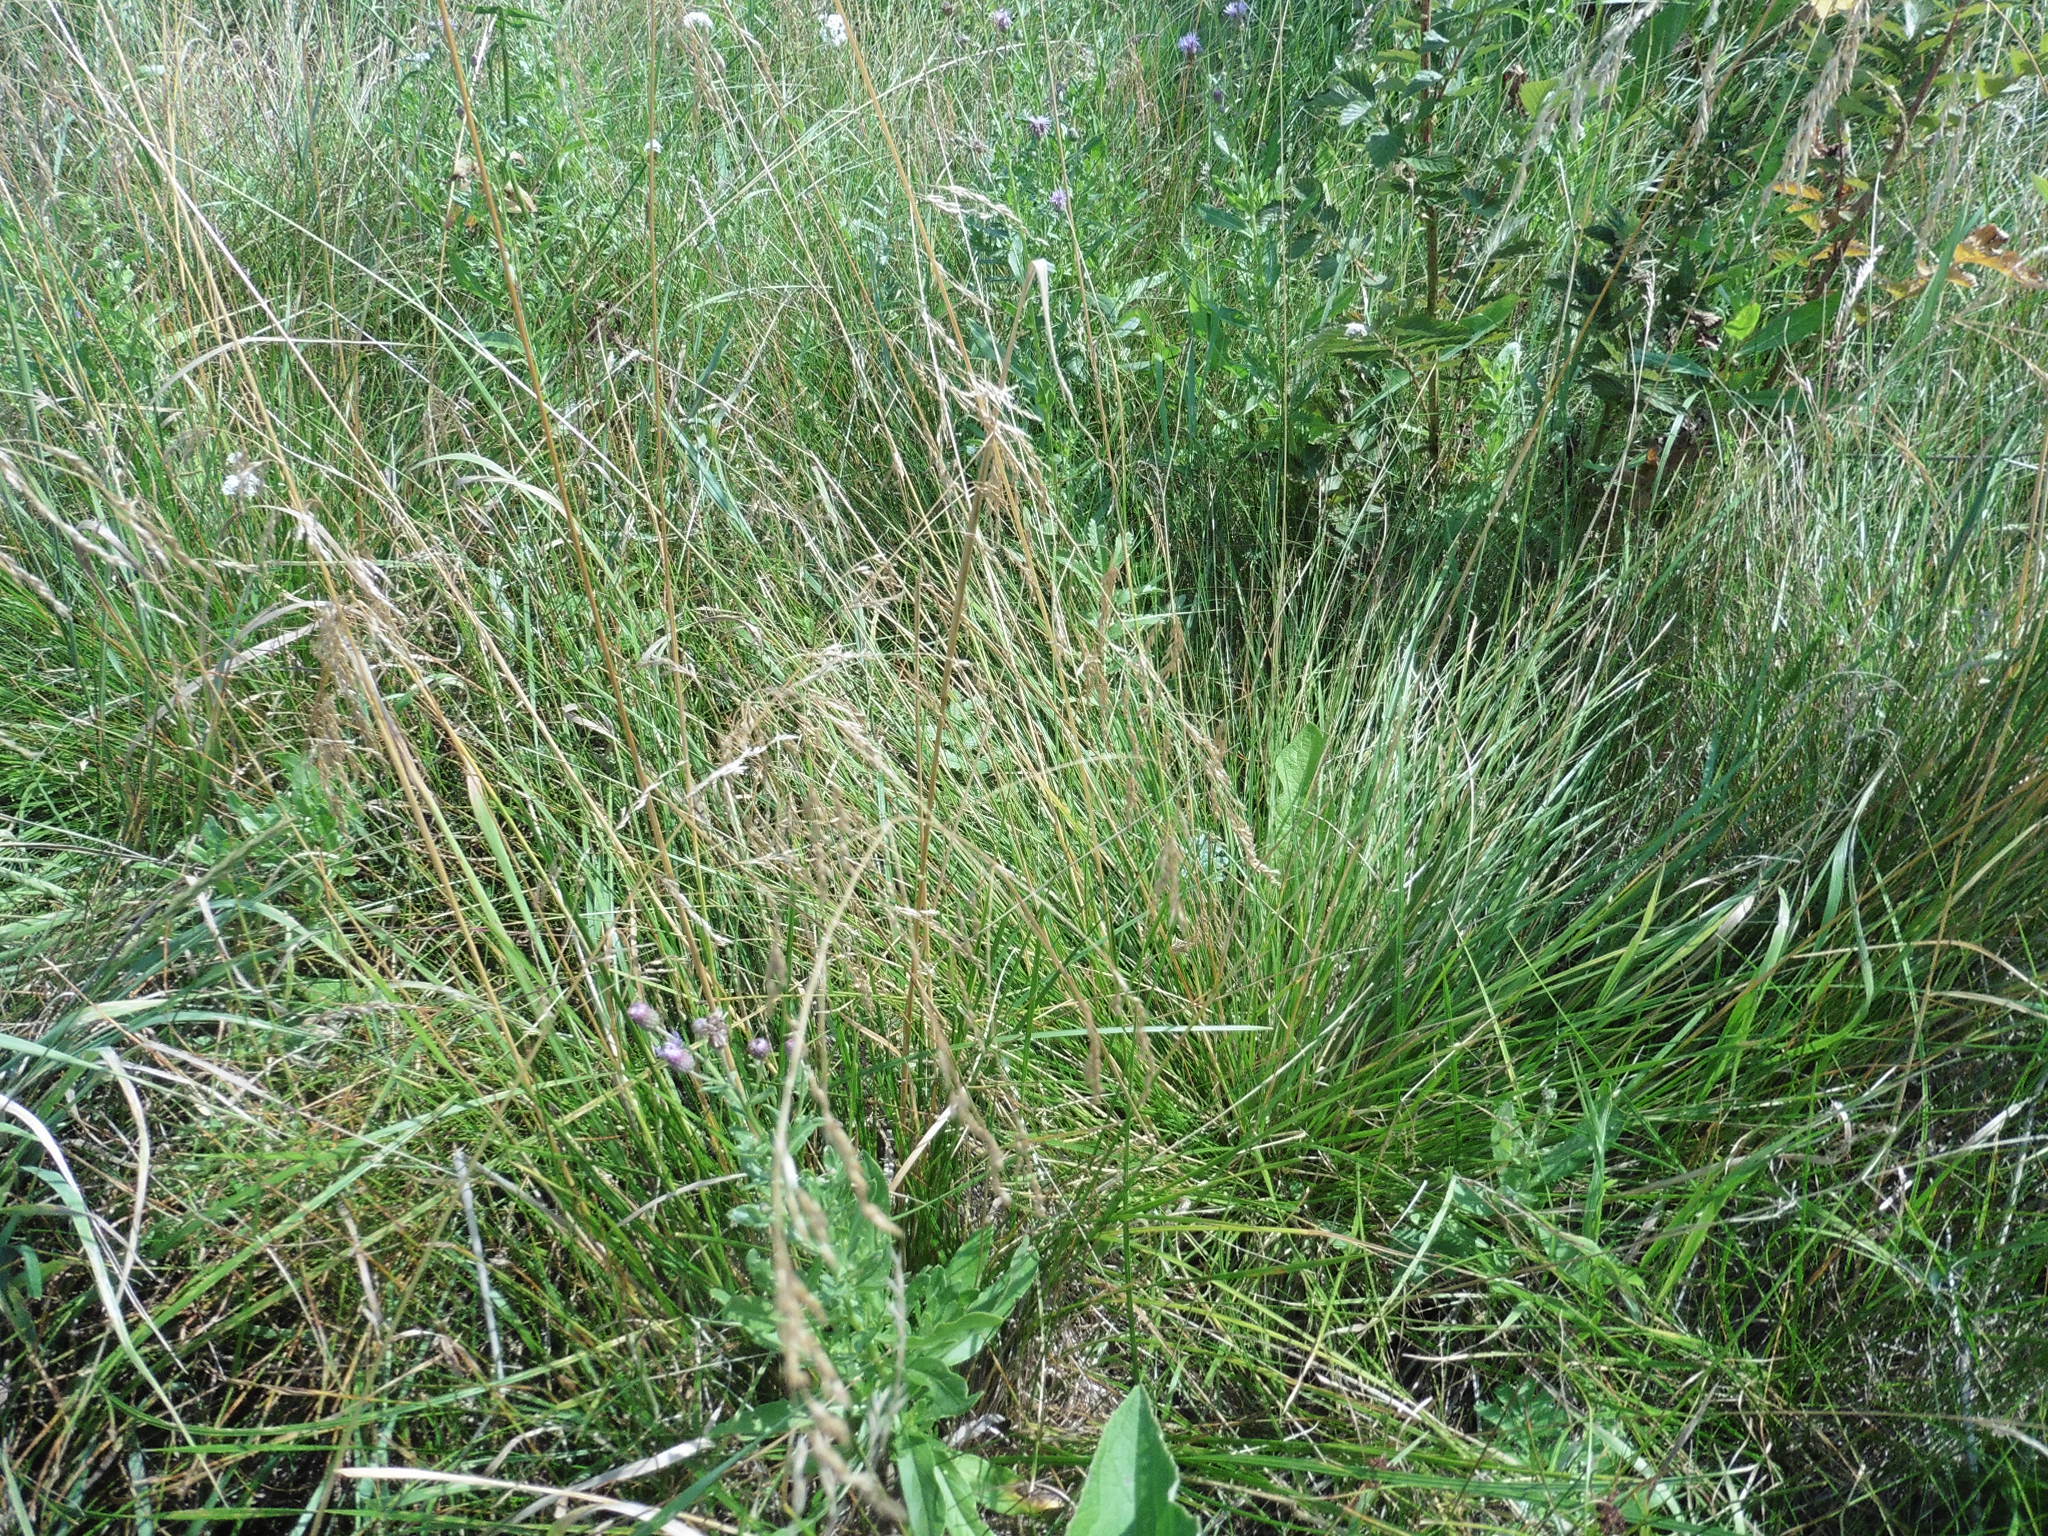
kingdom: Plantae
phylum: Tracheophyta
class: Liliopsida
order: Poales
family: Poaceae
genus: Deschampsia
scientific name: Deschampsia cespitosa
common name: Tufted hair-grass
